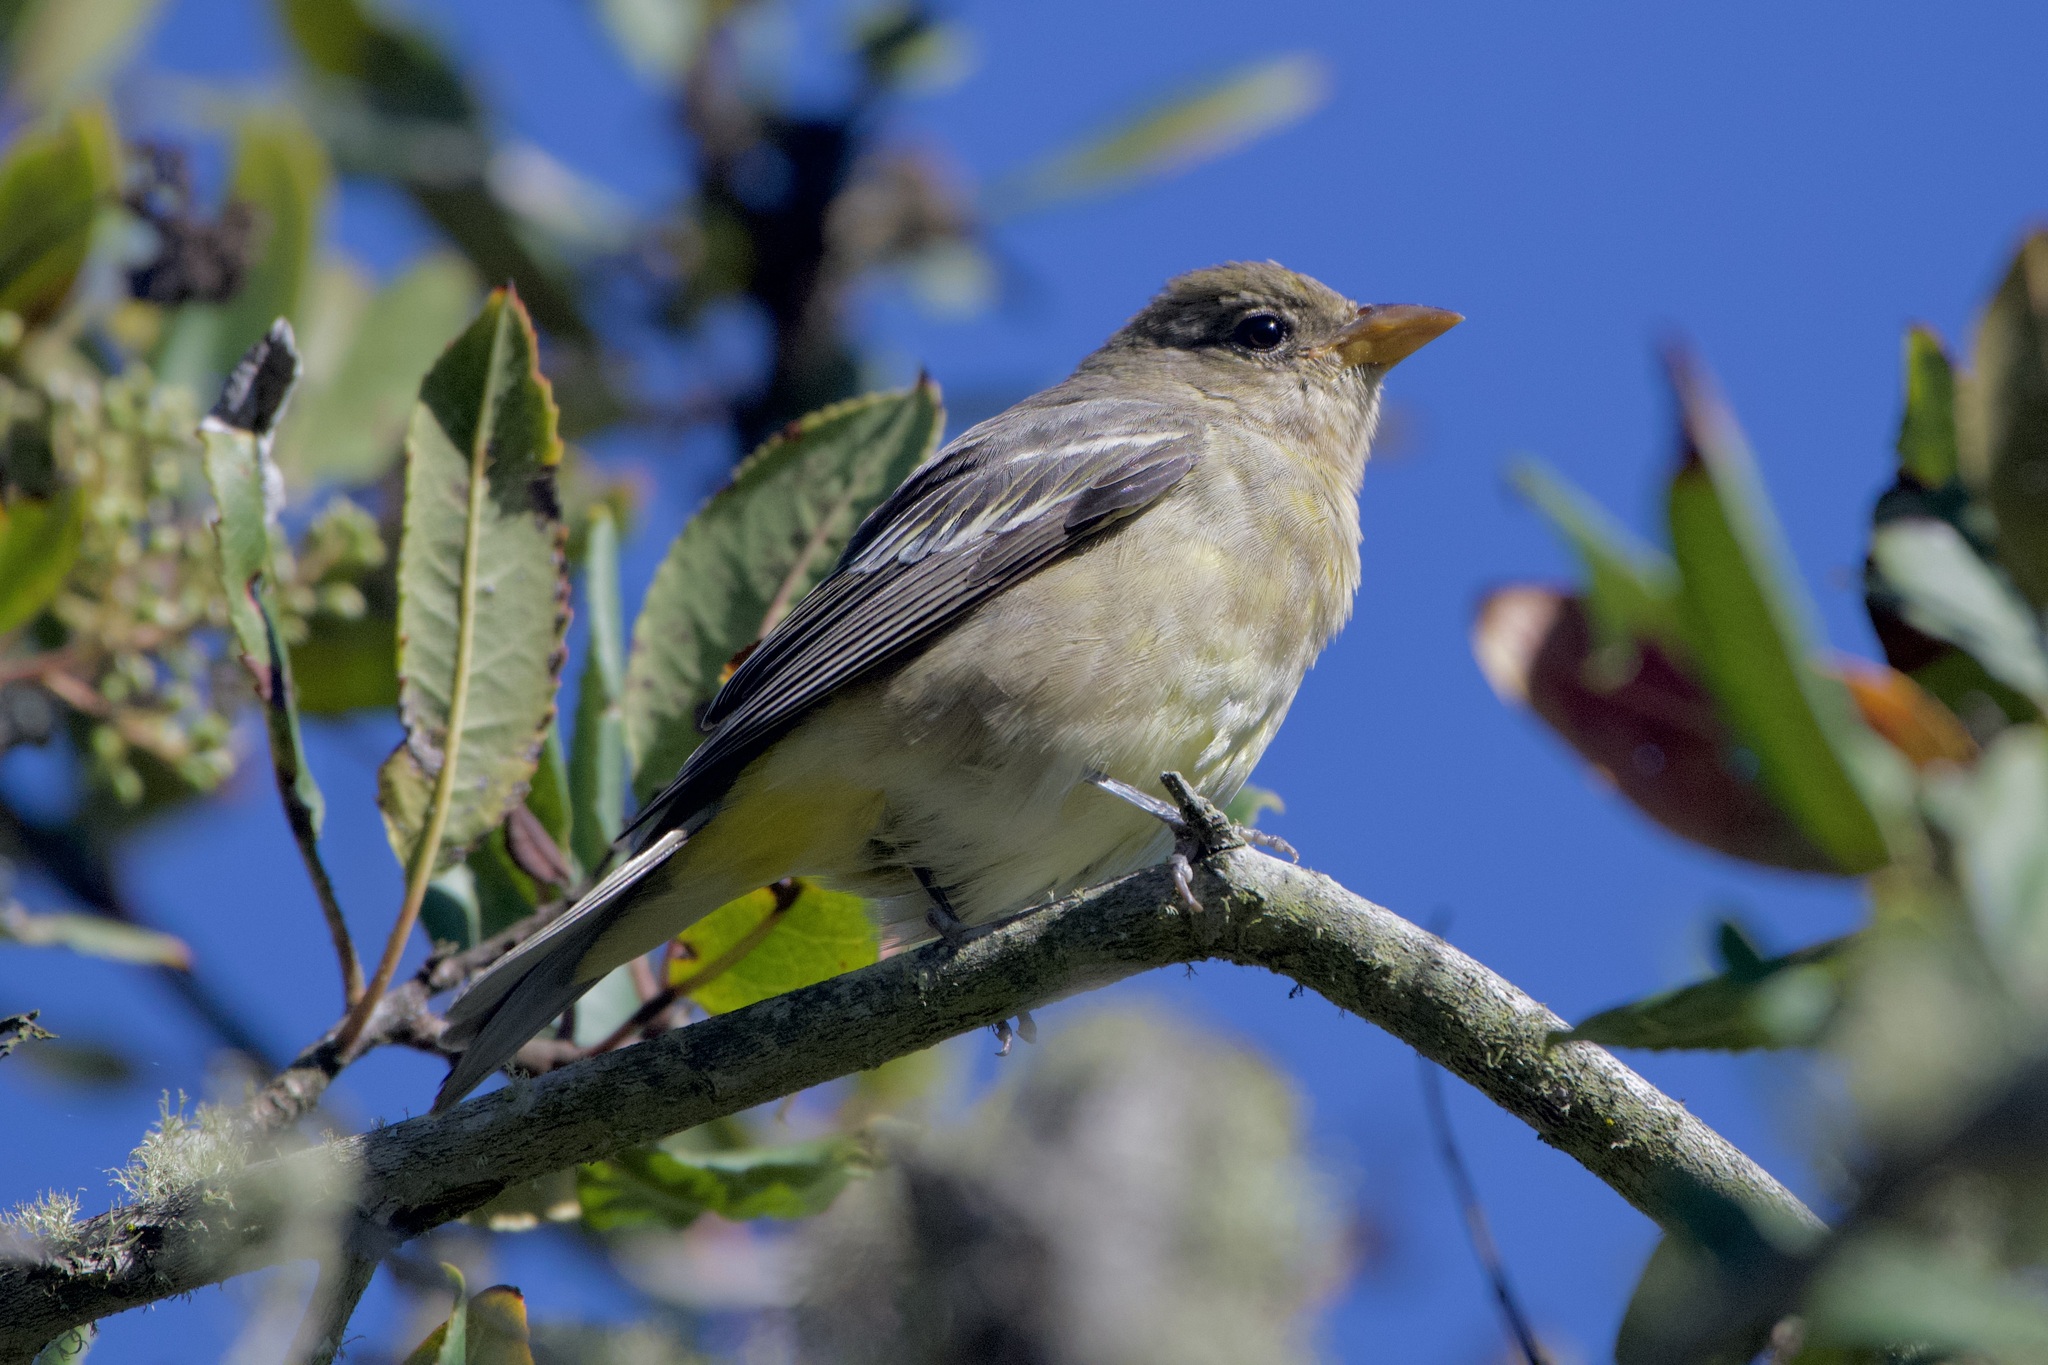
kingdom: Animalia
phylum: Chordata
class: Aves
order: Passeriformes
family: Cardinalidae
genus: Piranga
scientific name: Piranga ludoviciana
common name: Western tanager
